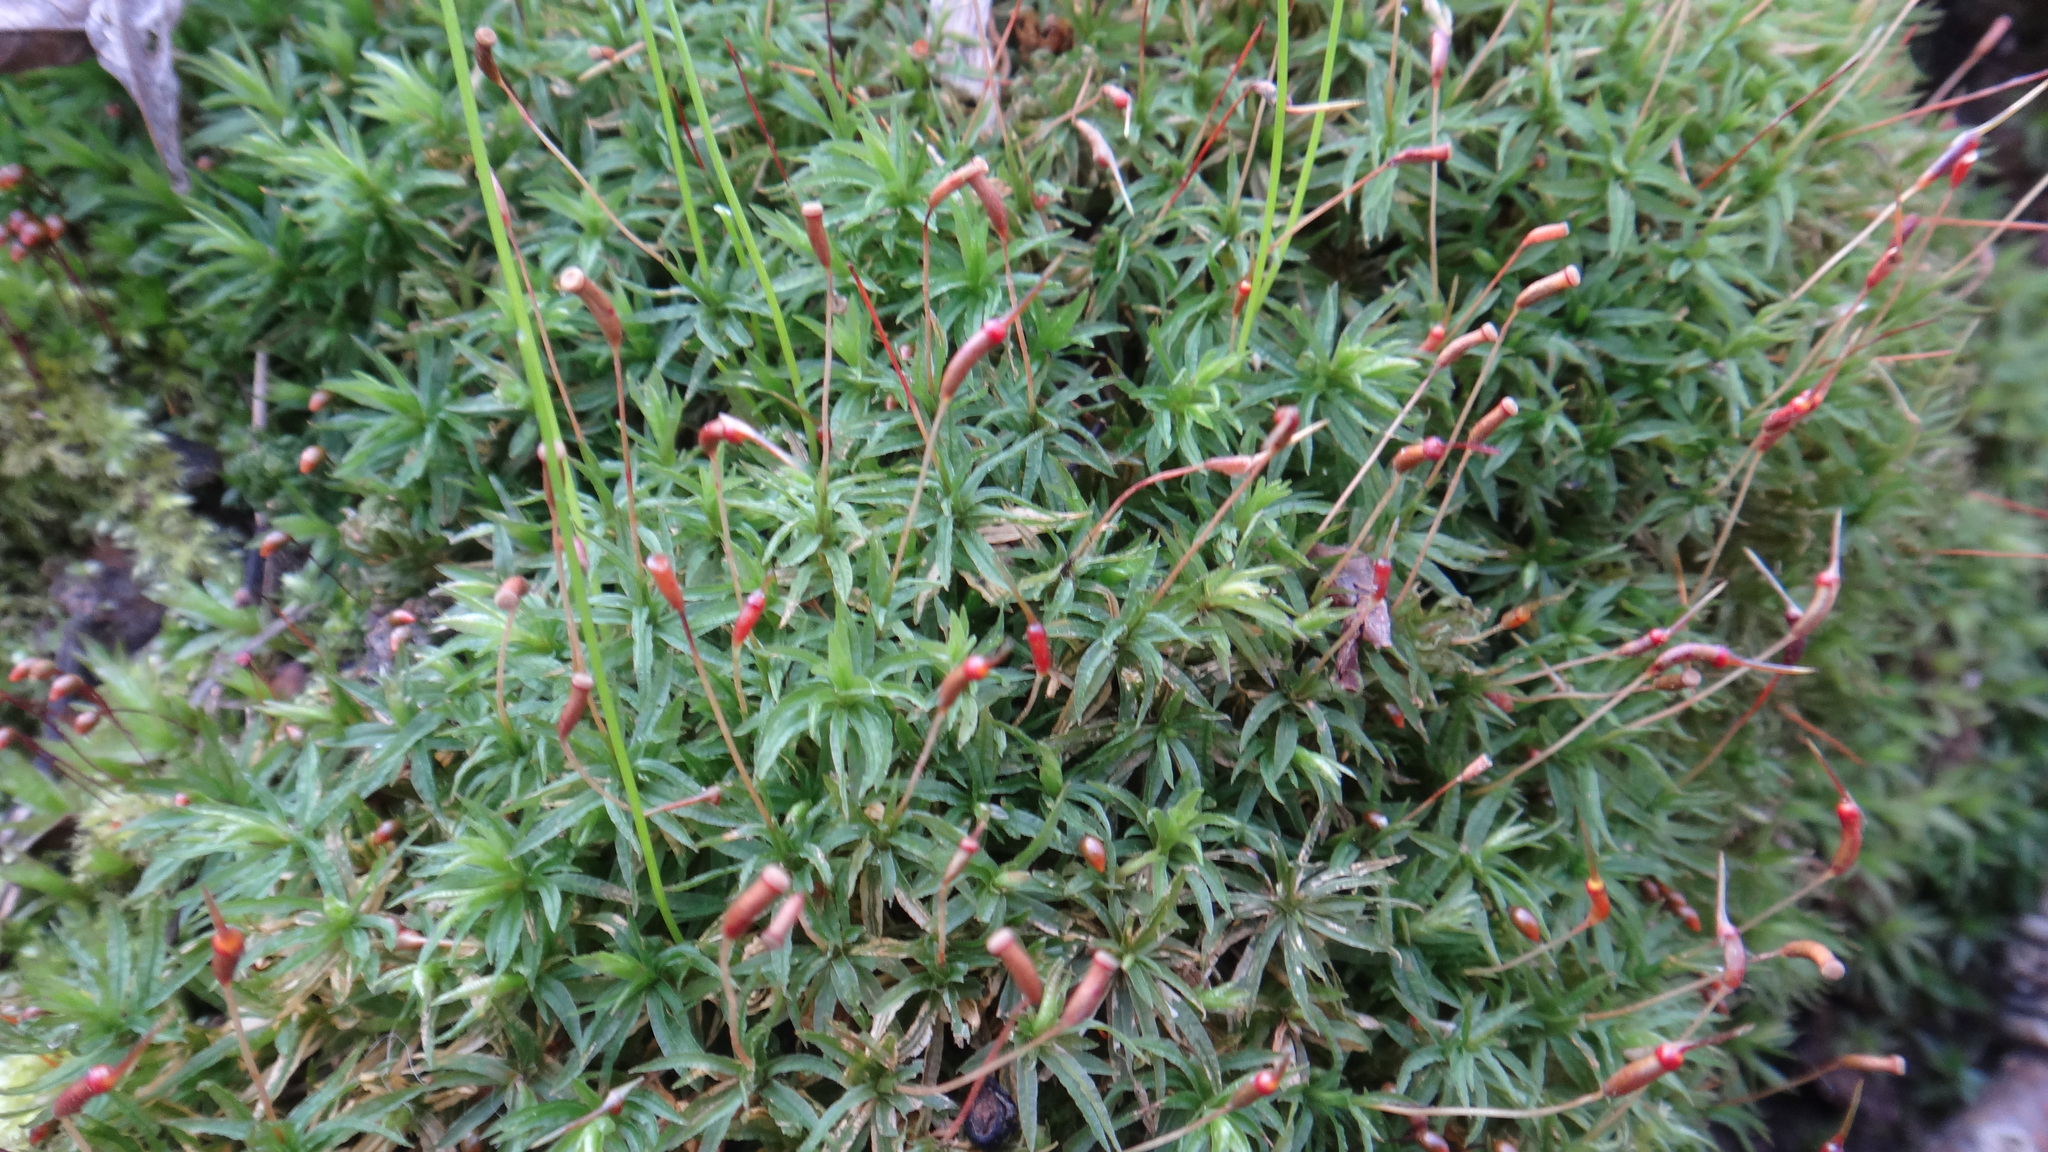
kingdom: Plantae
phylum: Bryophyta
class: Polytrichopsida
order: Polytrichales
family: Polytrichaceae
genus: Atrichum
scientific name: Atrichum undulatum
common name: Common smoothcap
